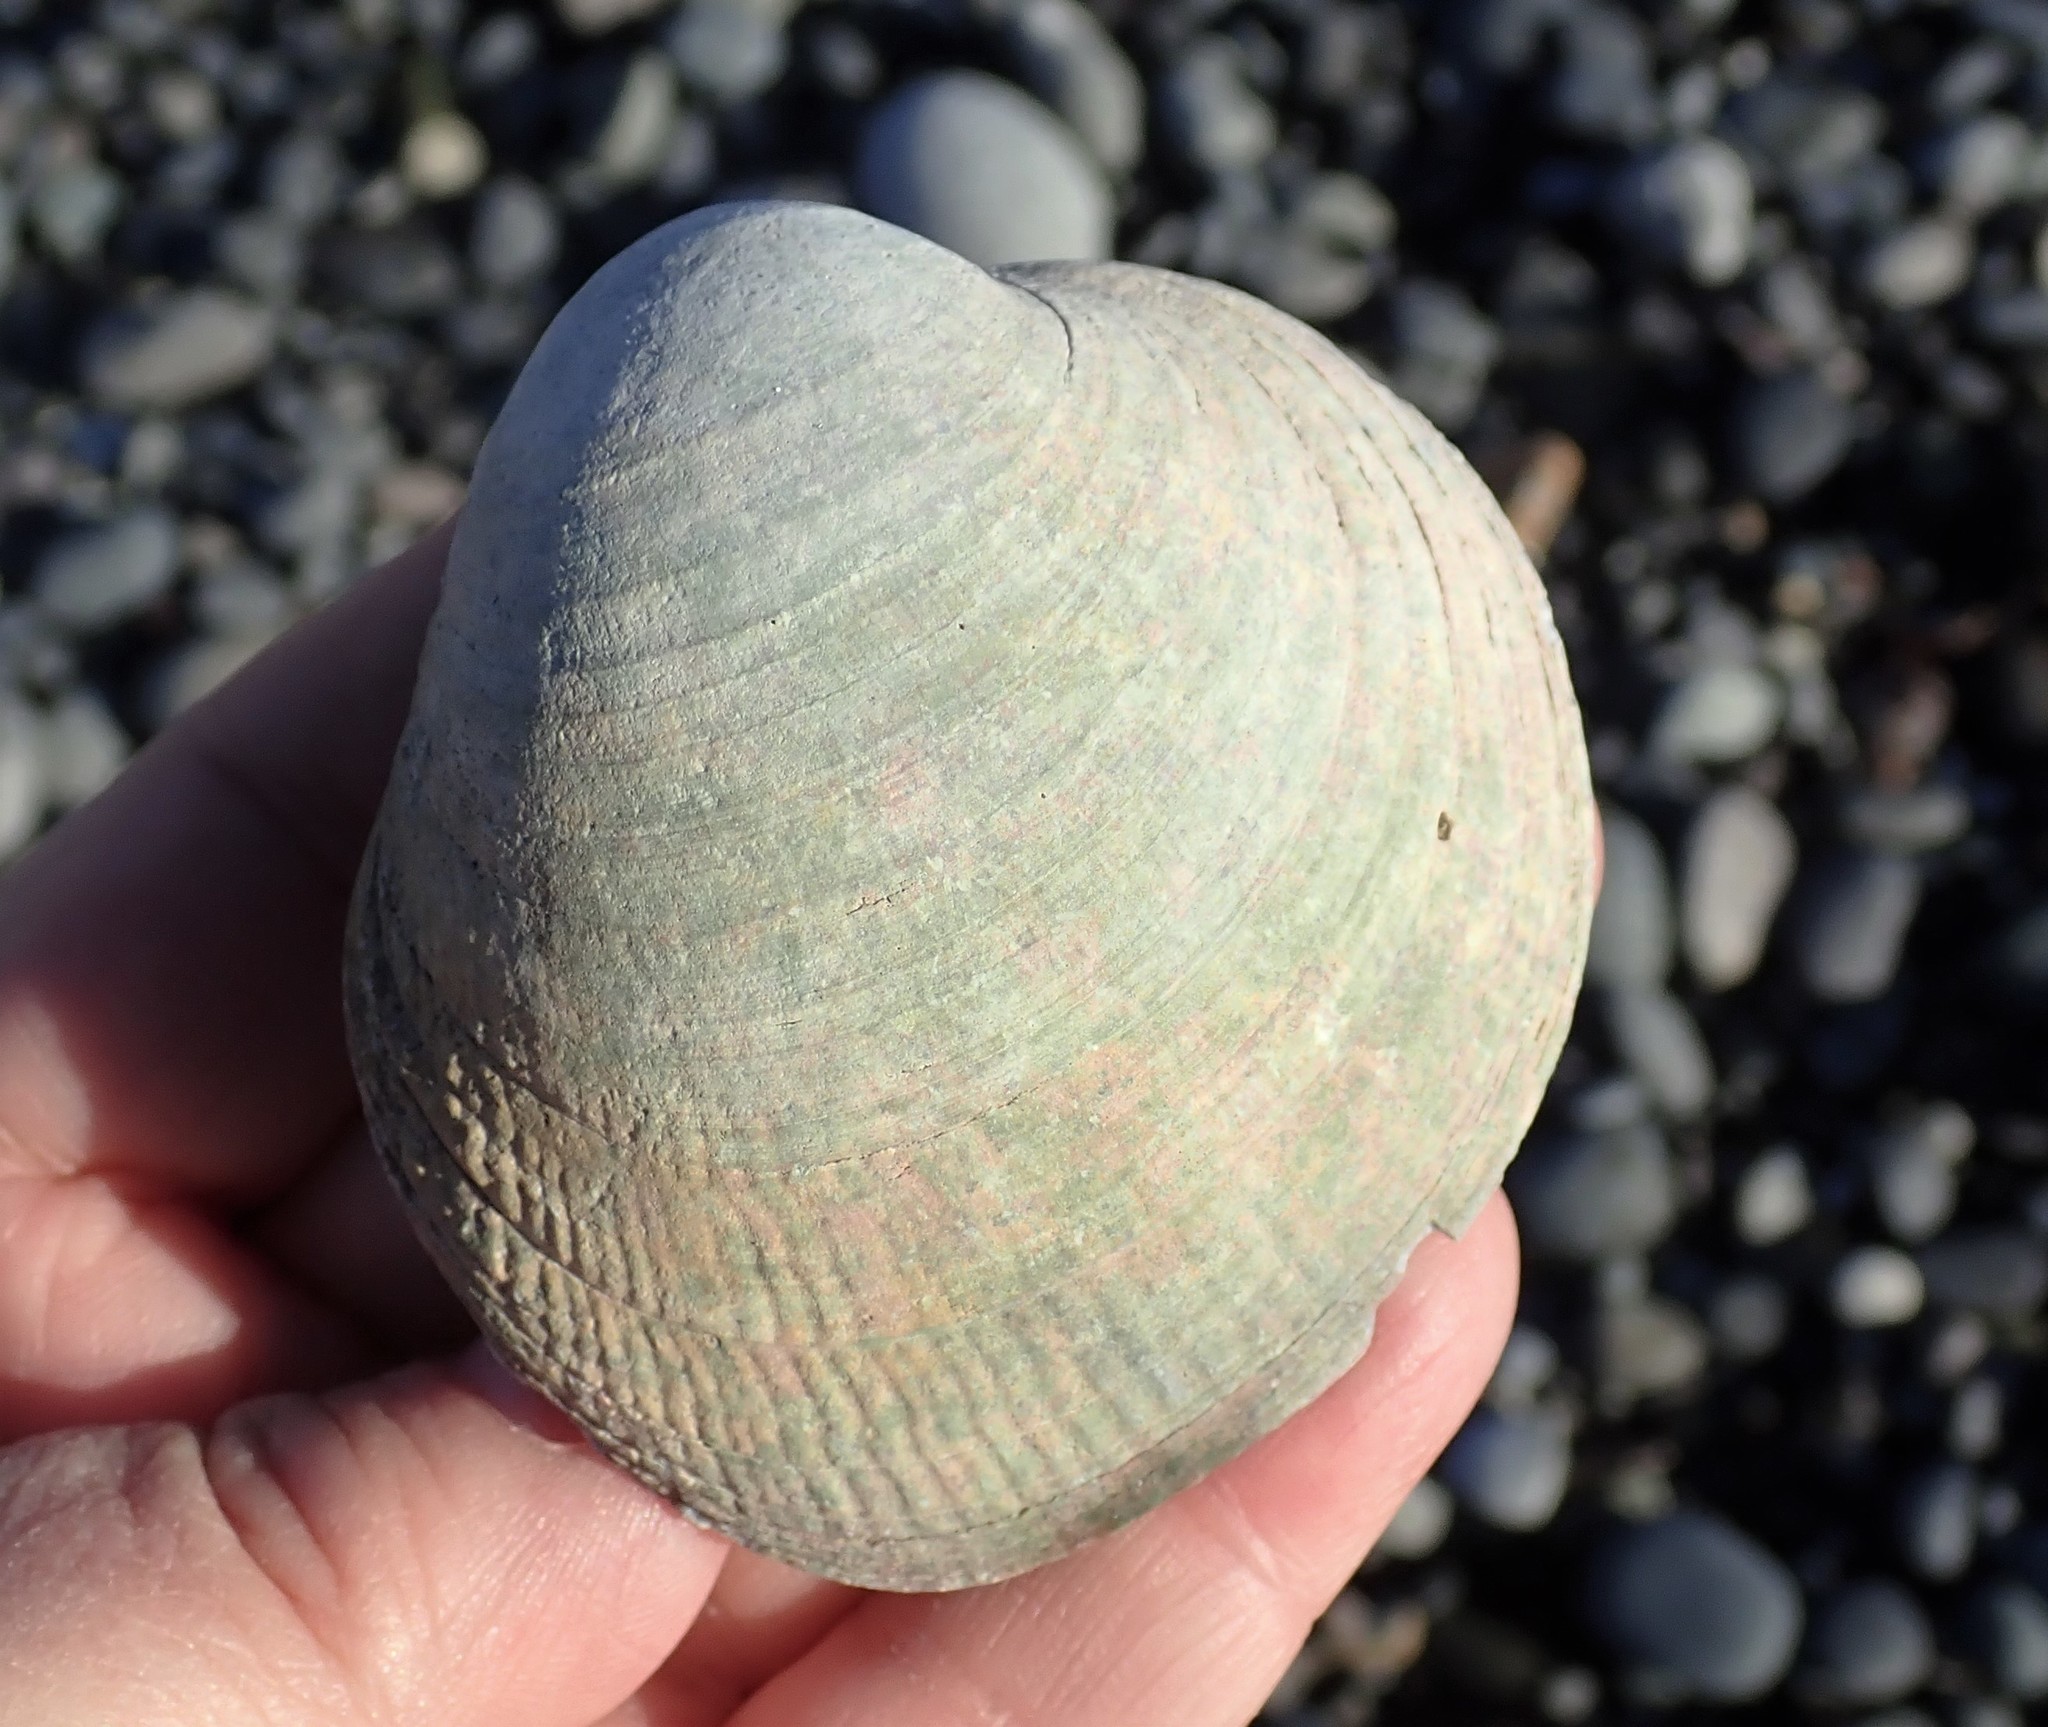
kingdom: Animalia
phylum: Mollusca
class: Bivalvia
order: Venerida
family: Veneridae
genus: Leukoma
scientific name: Leukoma staminea
